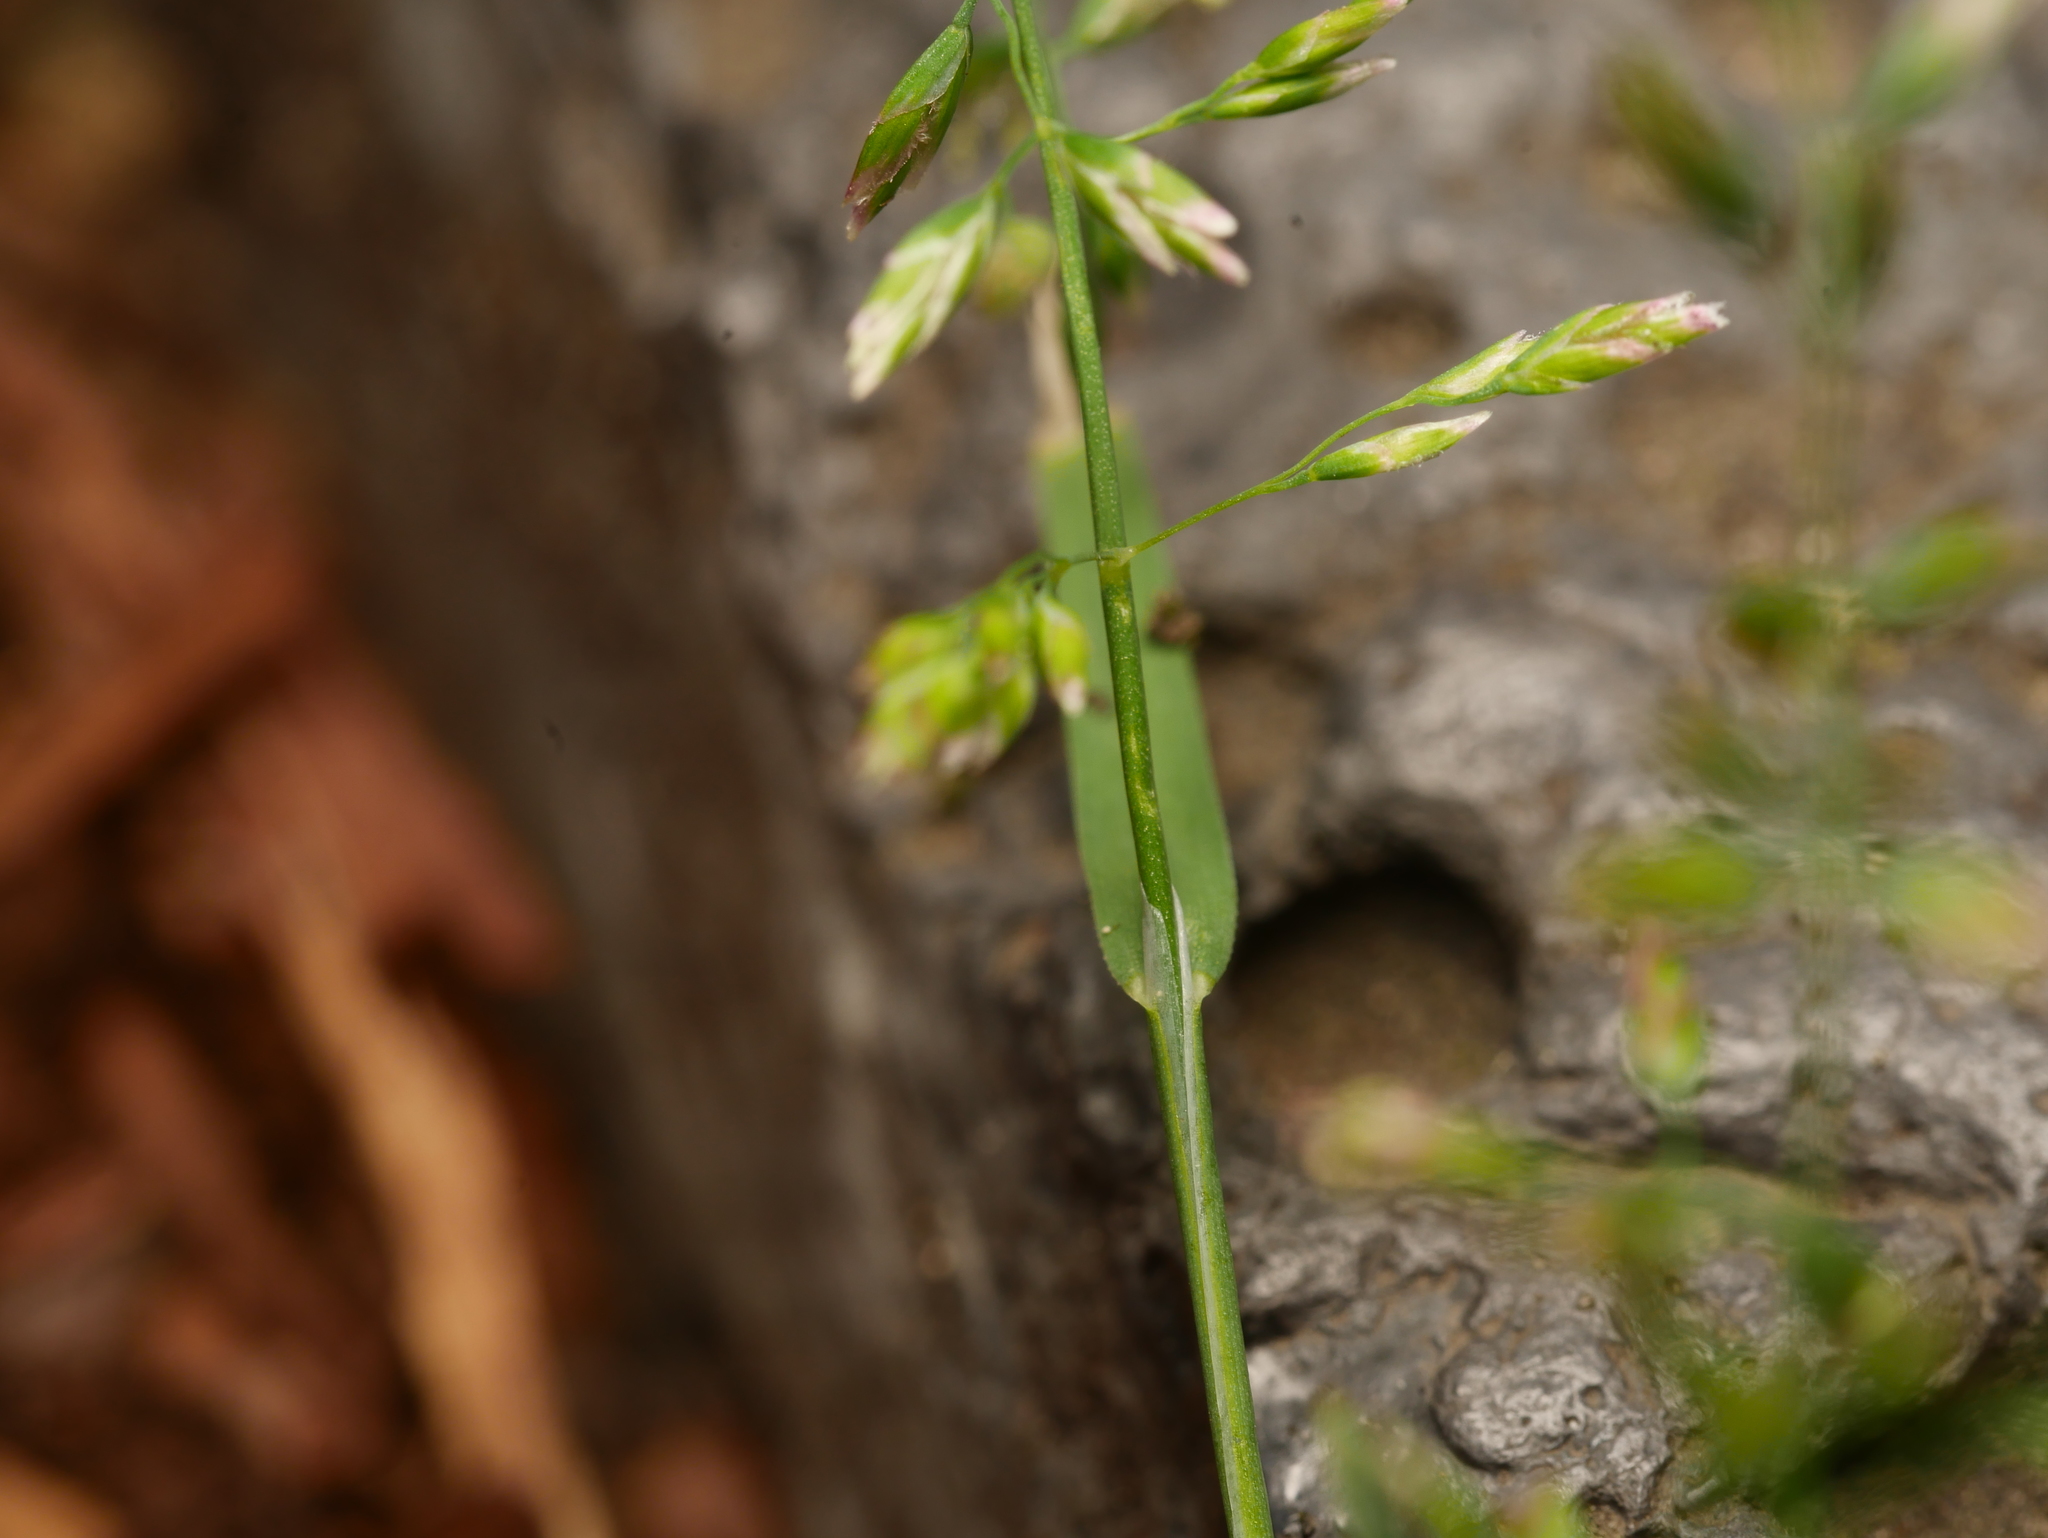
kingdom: Plantae
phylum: Tracheophyta
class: Liliopsida
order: Poales
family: Poaceae
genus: Poa
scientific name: Poa annua
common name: Annual bluegrass
